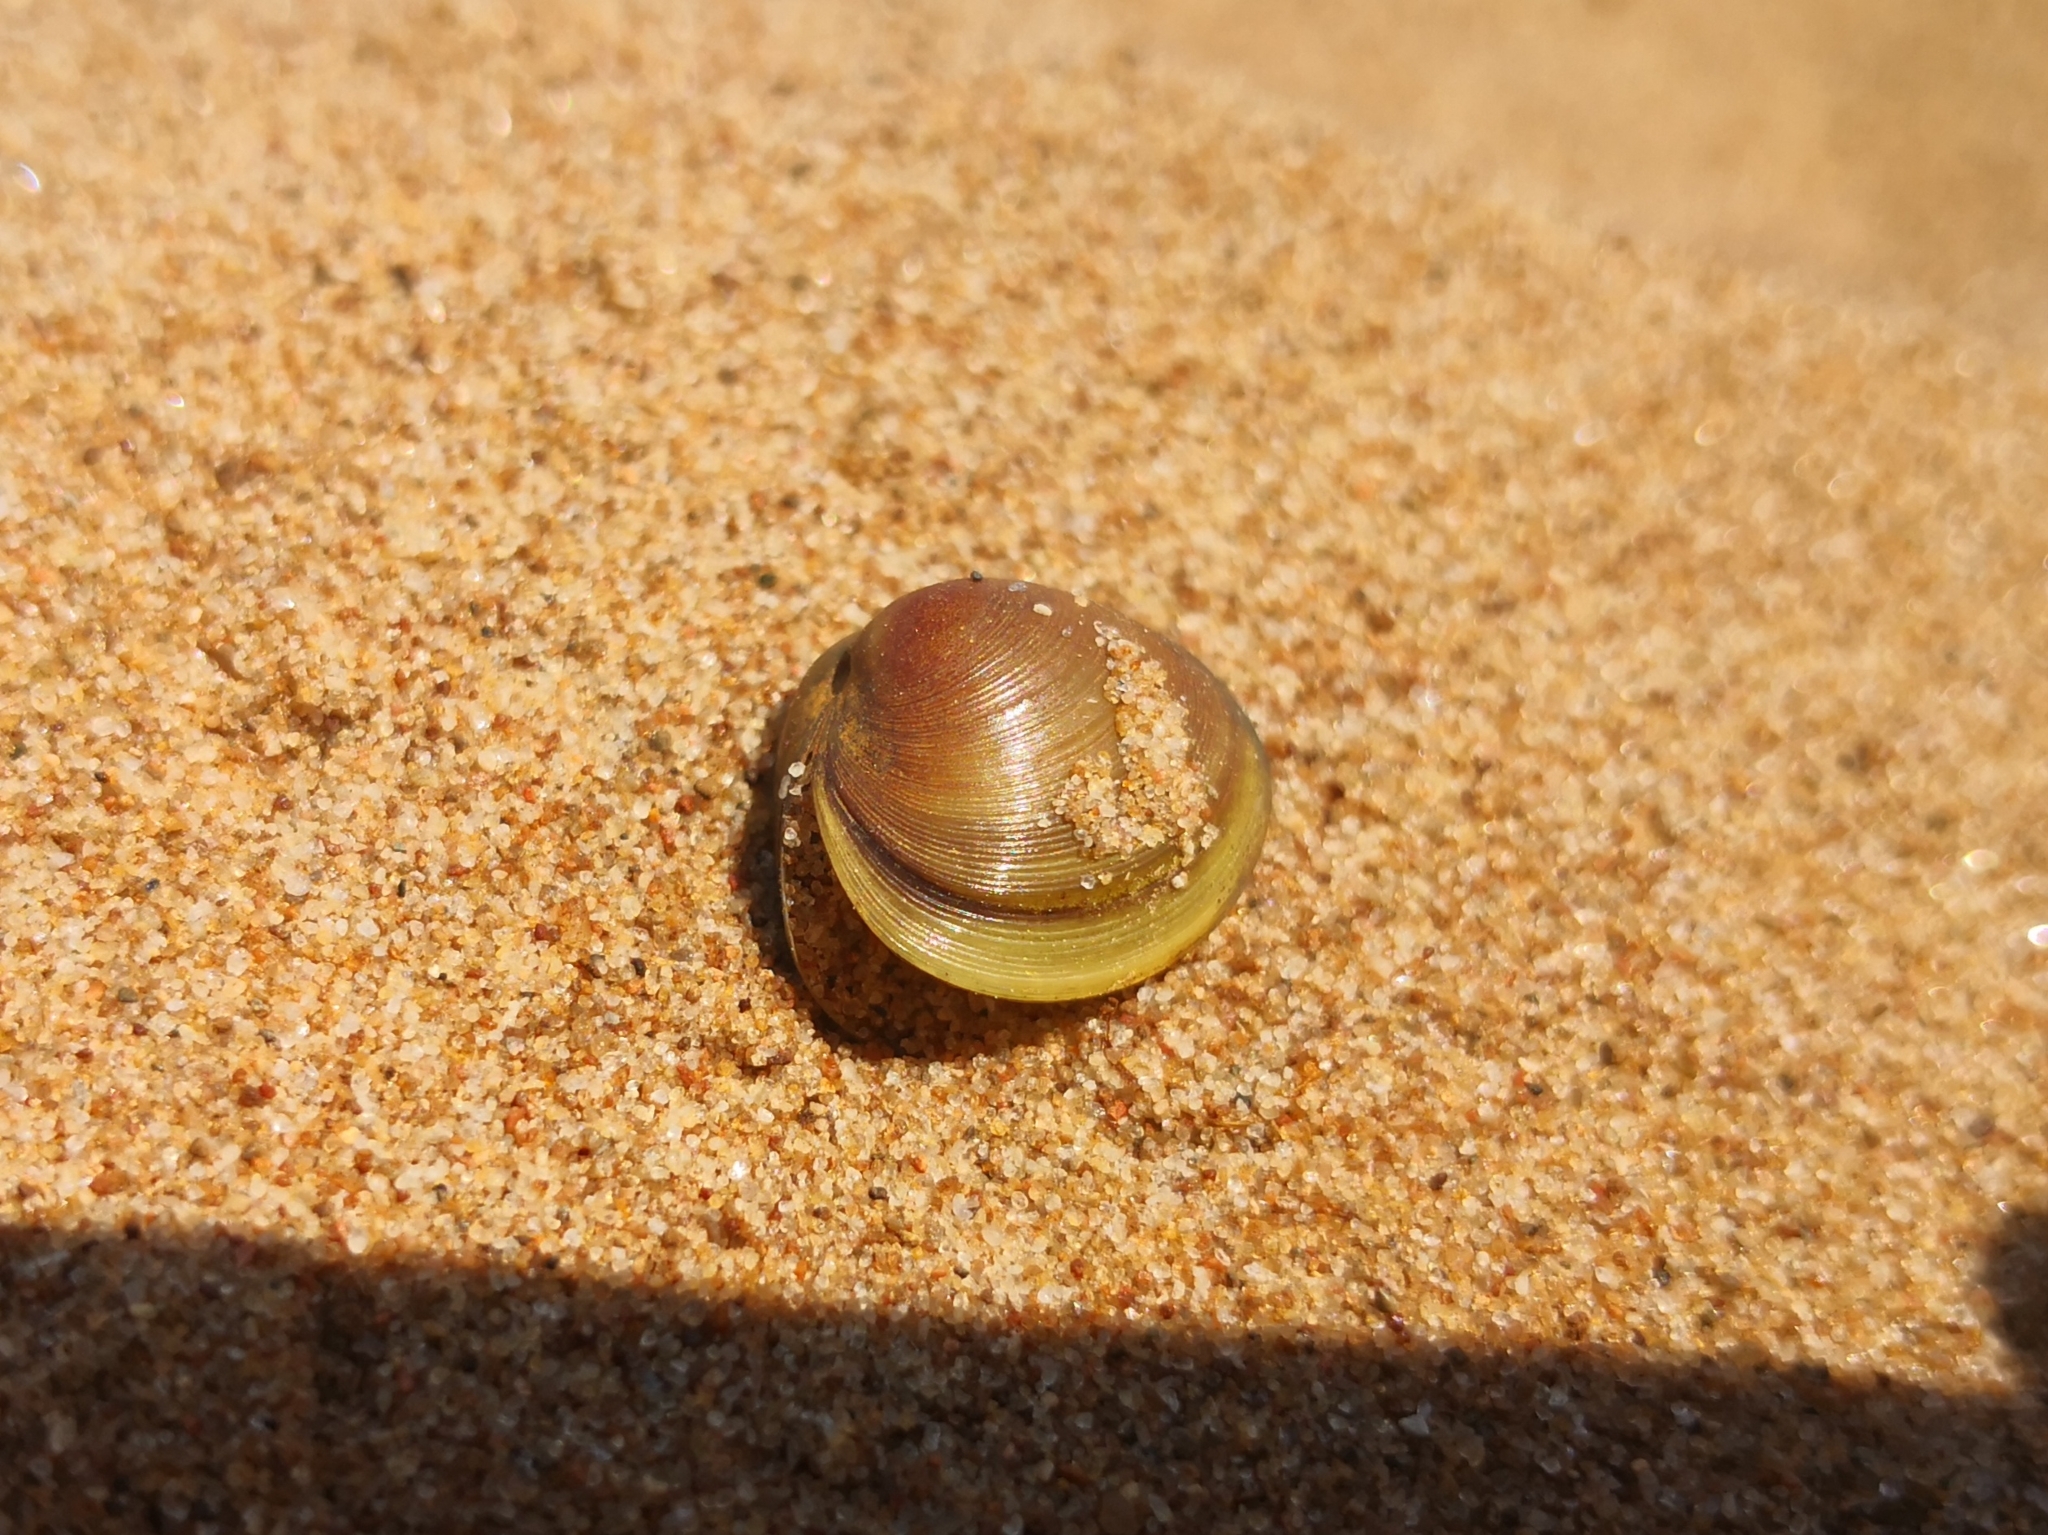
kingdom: Animalia
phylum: Mollusca
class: Bivalvia
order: Sphaeriida
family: Sphaeriidae
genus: Sphaerium
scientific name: Sphaerium rivicola
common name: Nut orb mussel
